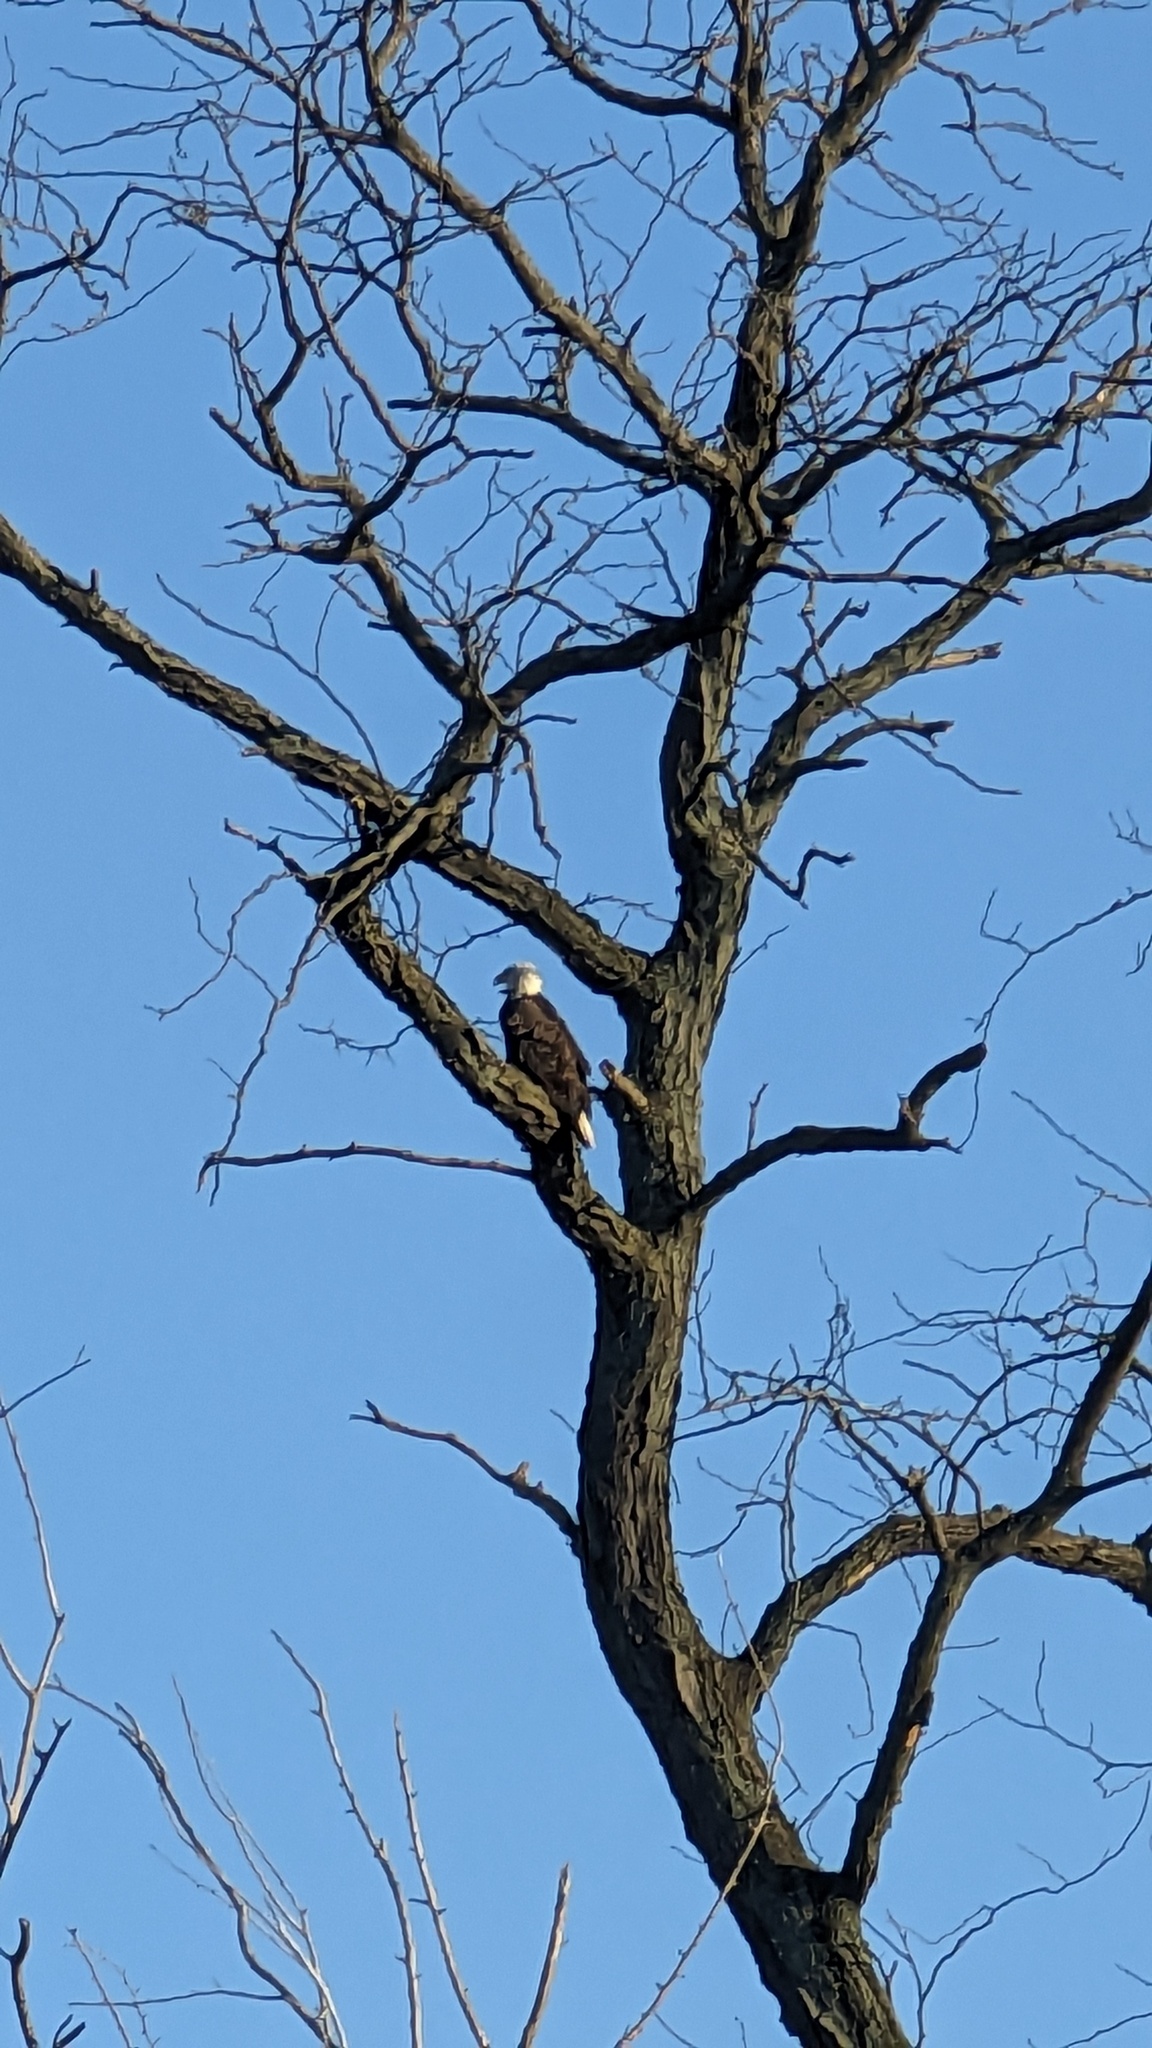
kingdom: Animalia
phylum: Chordata
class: Aves
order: Accipitriformes
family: Accipitridae
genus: Haliaeetus
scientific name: Haliaeetus leucocephalus
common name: Bald eagle
